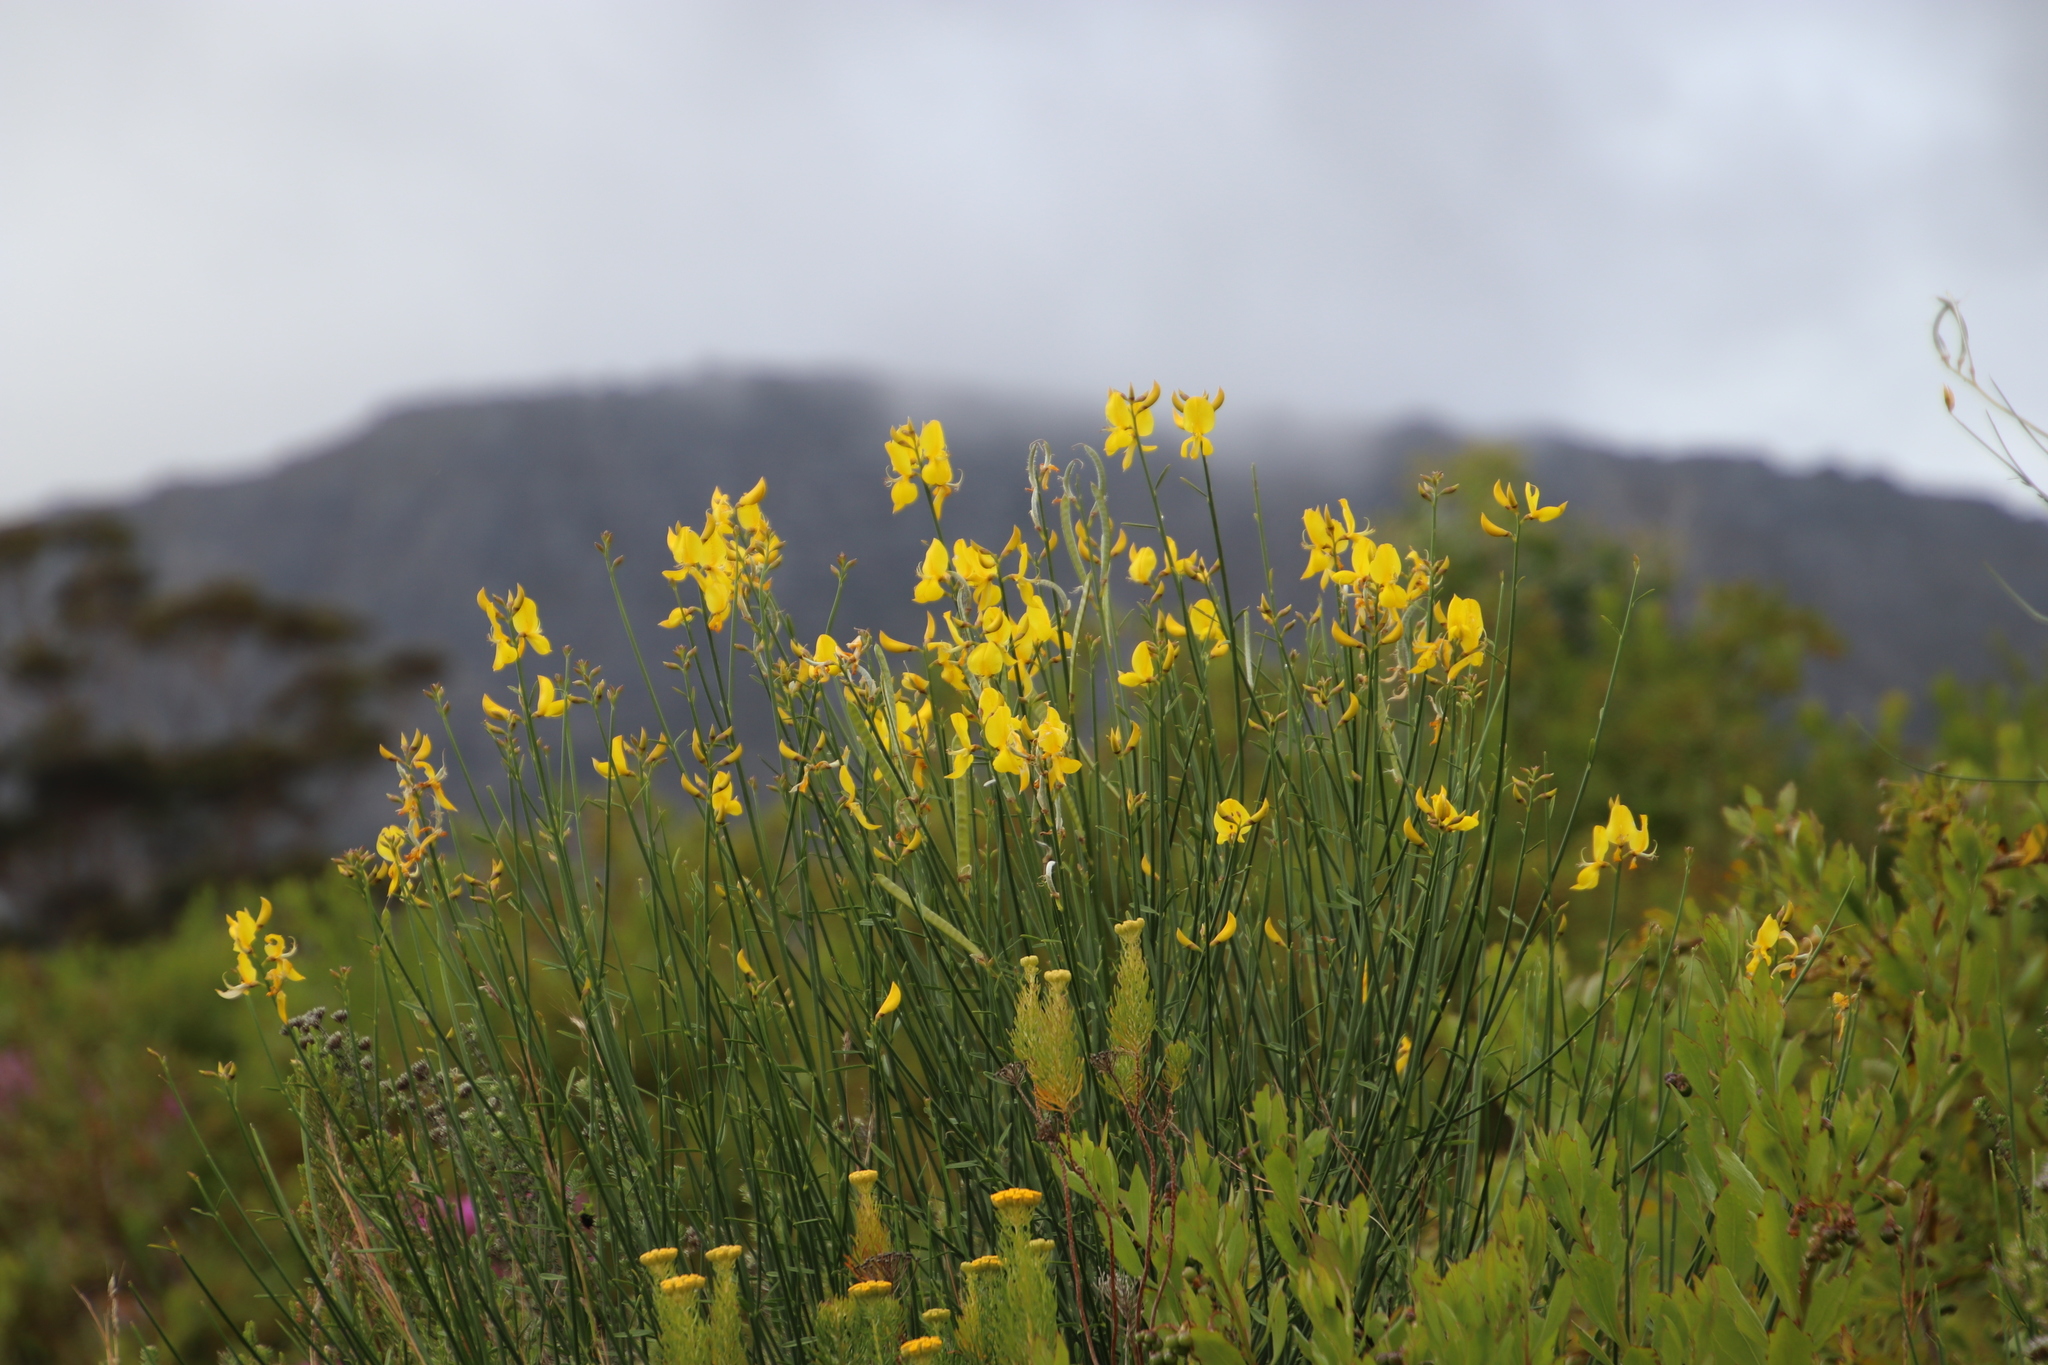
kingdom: Plantae
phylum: Tracheophyta
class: Magnoliopsida
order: Fabales
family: Fabaceae
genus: Spartium
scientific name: Spartium junceum
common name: Spanish broom
